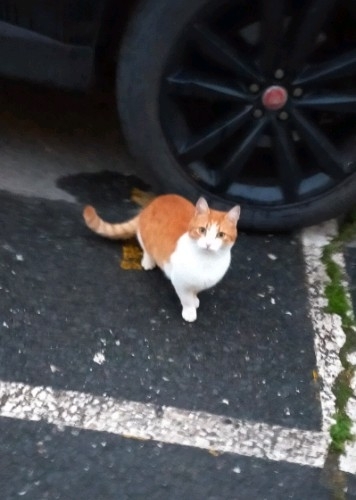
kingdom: Animalia
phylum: Chordata
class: Mammalia
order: Carnivora
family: Felidae
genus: Felis
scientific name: Felis catus
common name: Domestic cat
